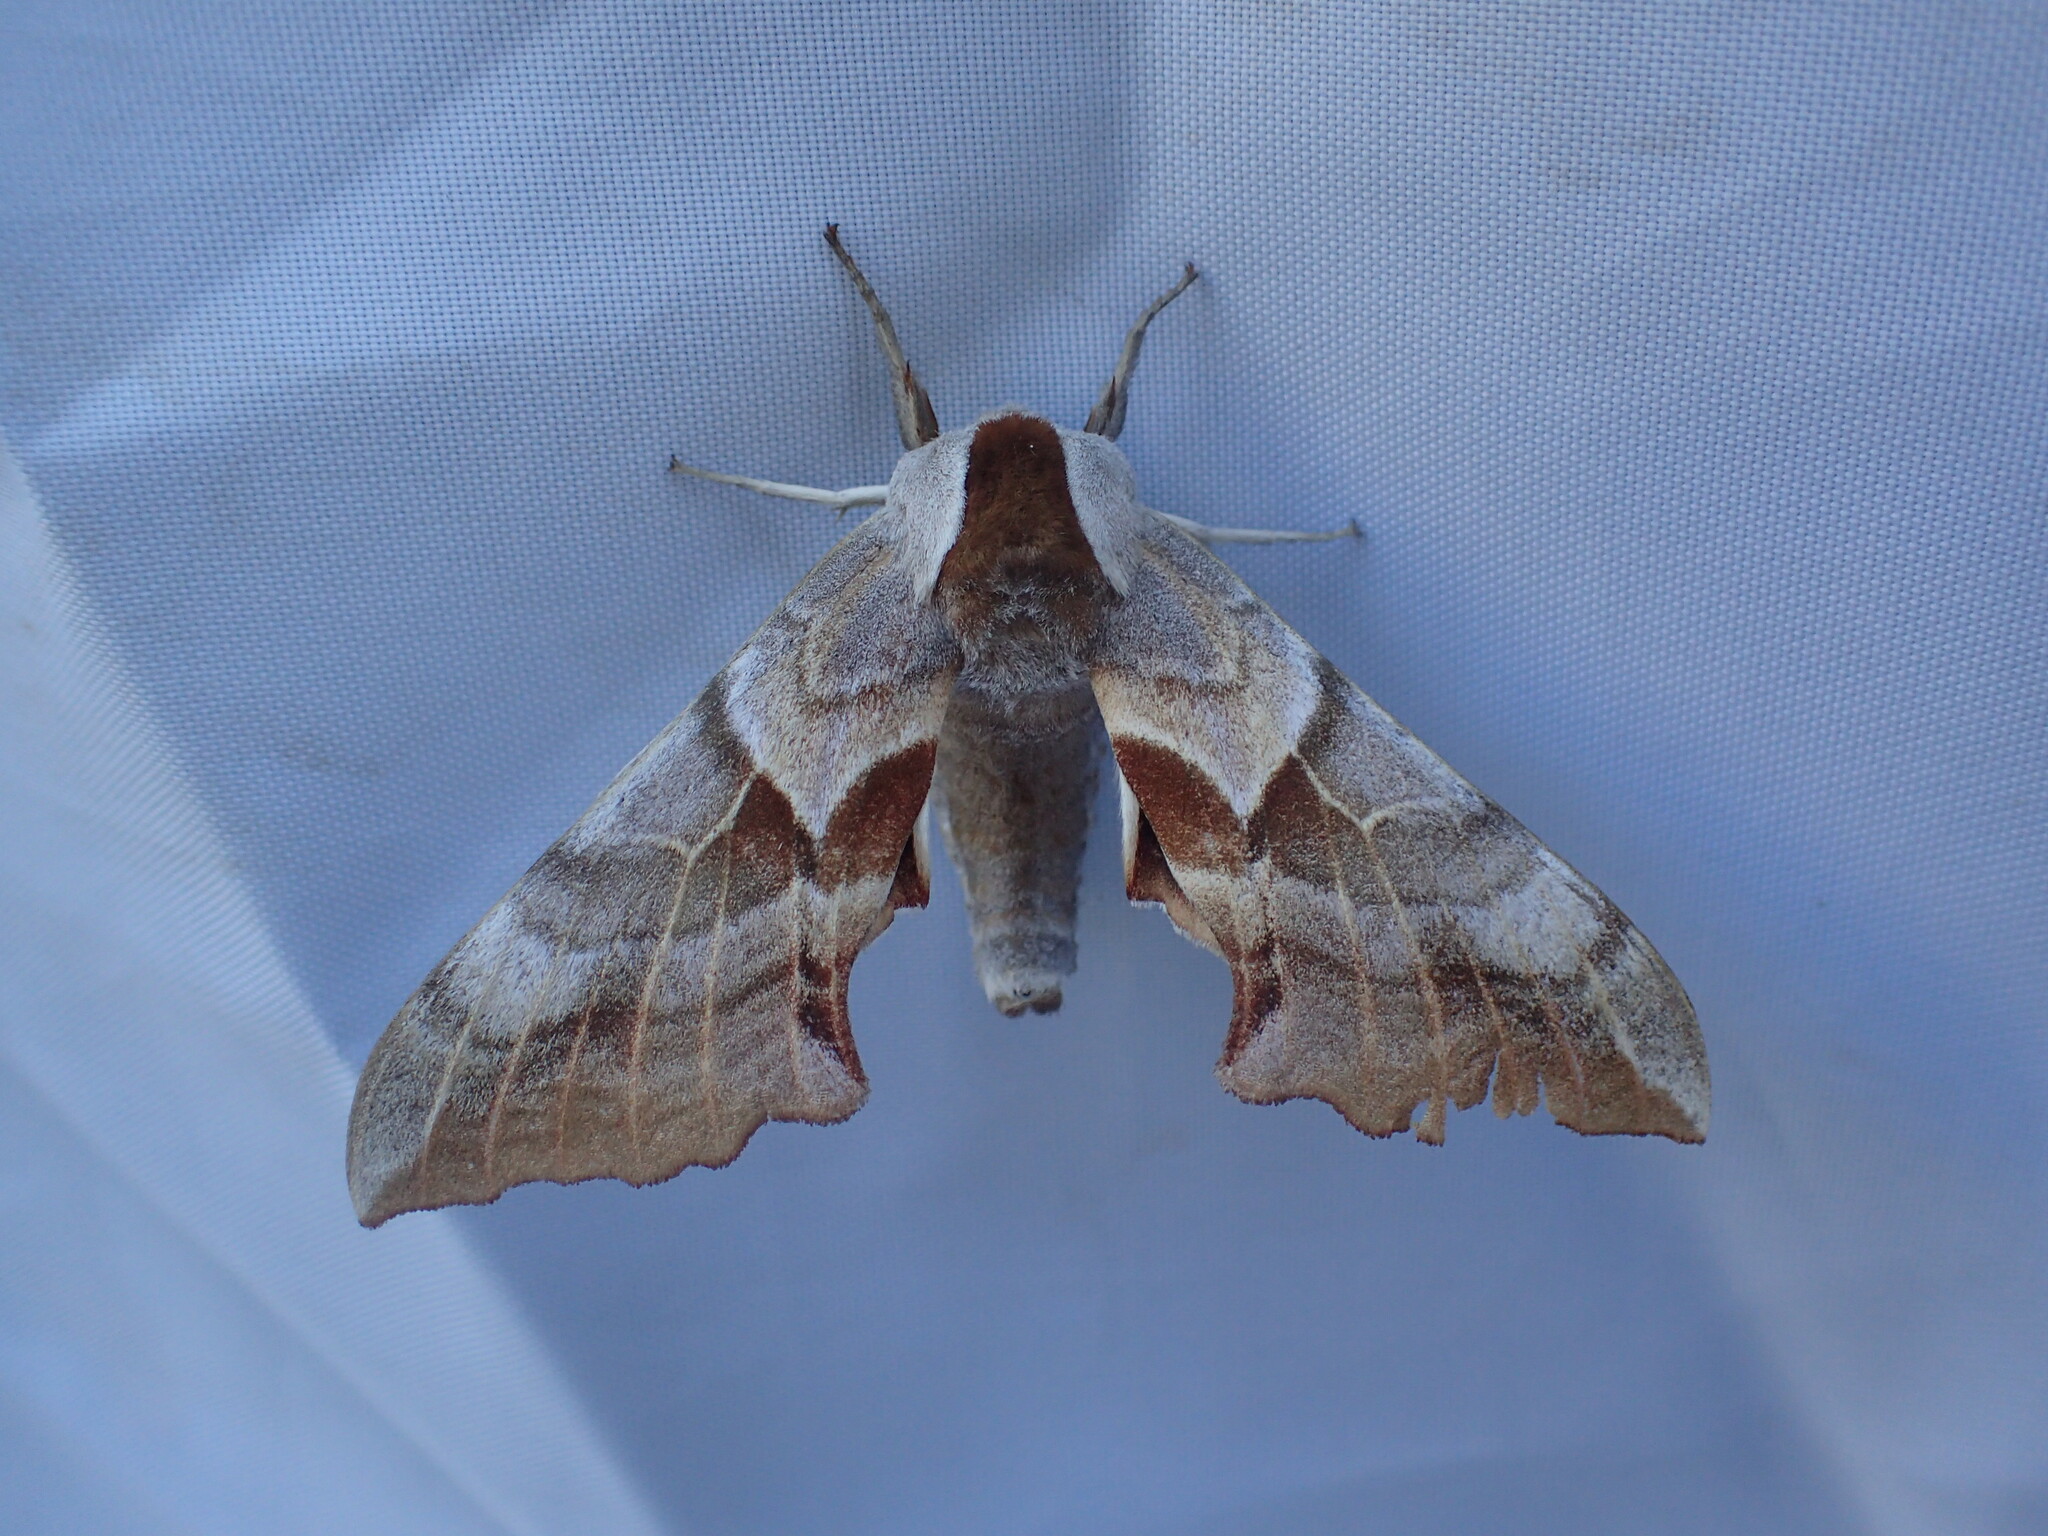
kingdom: Animalia
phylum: Arthropoda
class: Insecta
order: Lepidoptera
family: Sphingidae
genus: Smerinthus
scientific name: Smerinthus cerisyi
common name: Cerisy's sphinx moth
